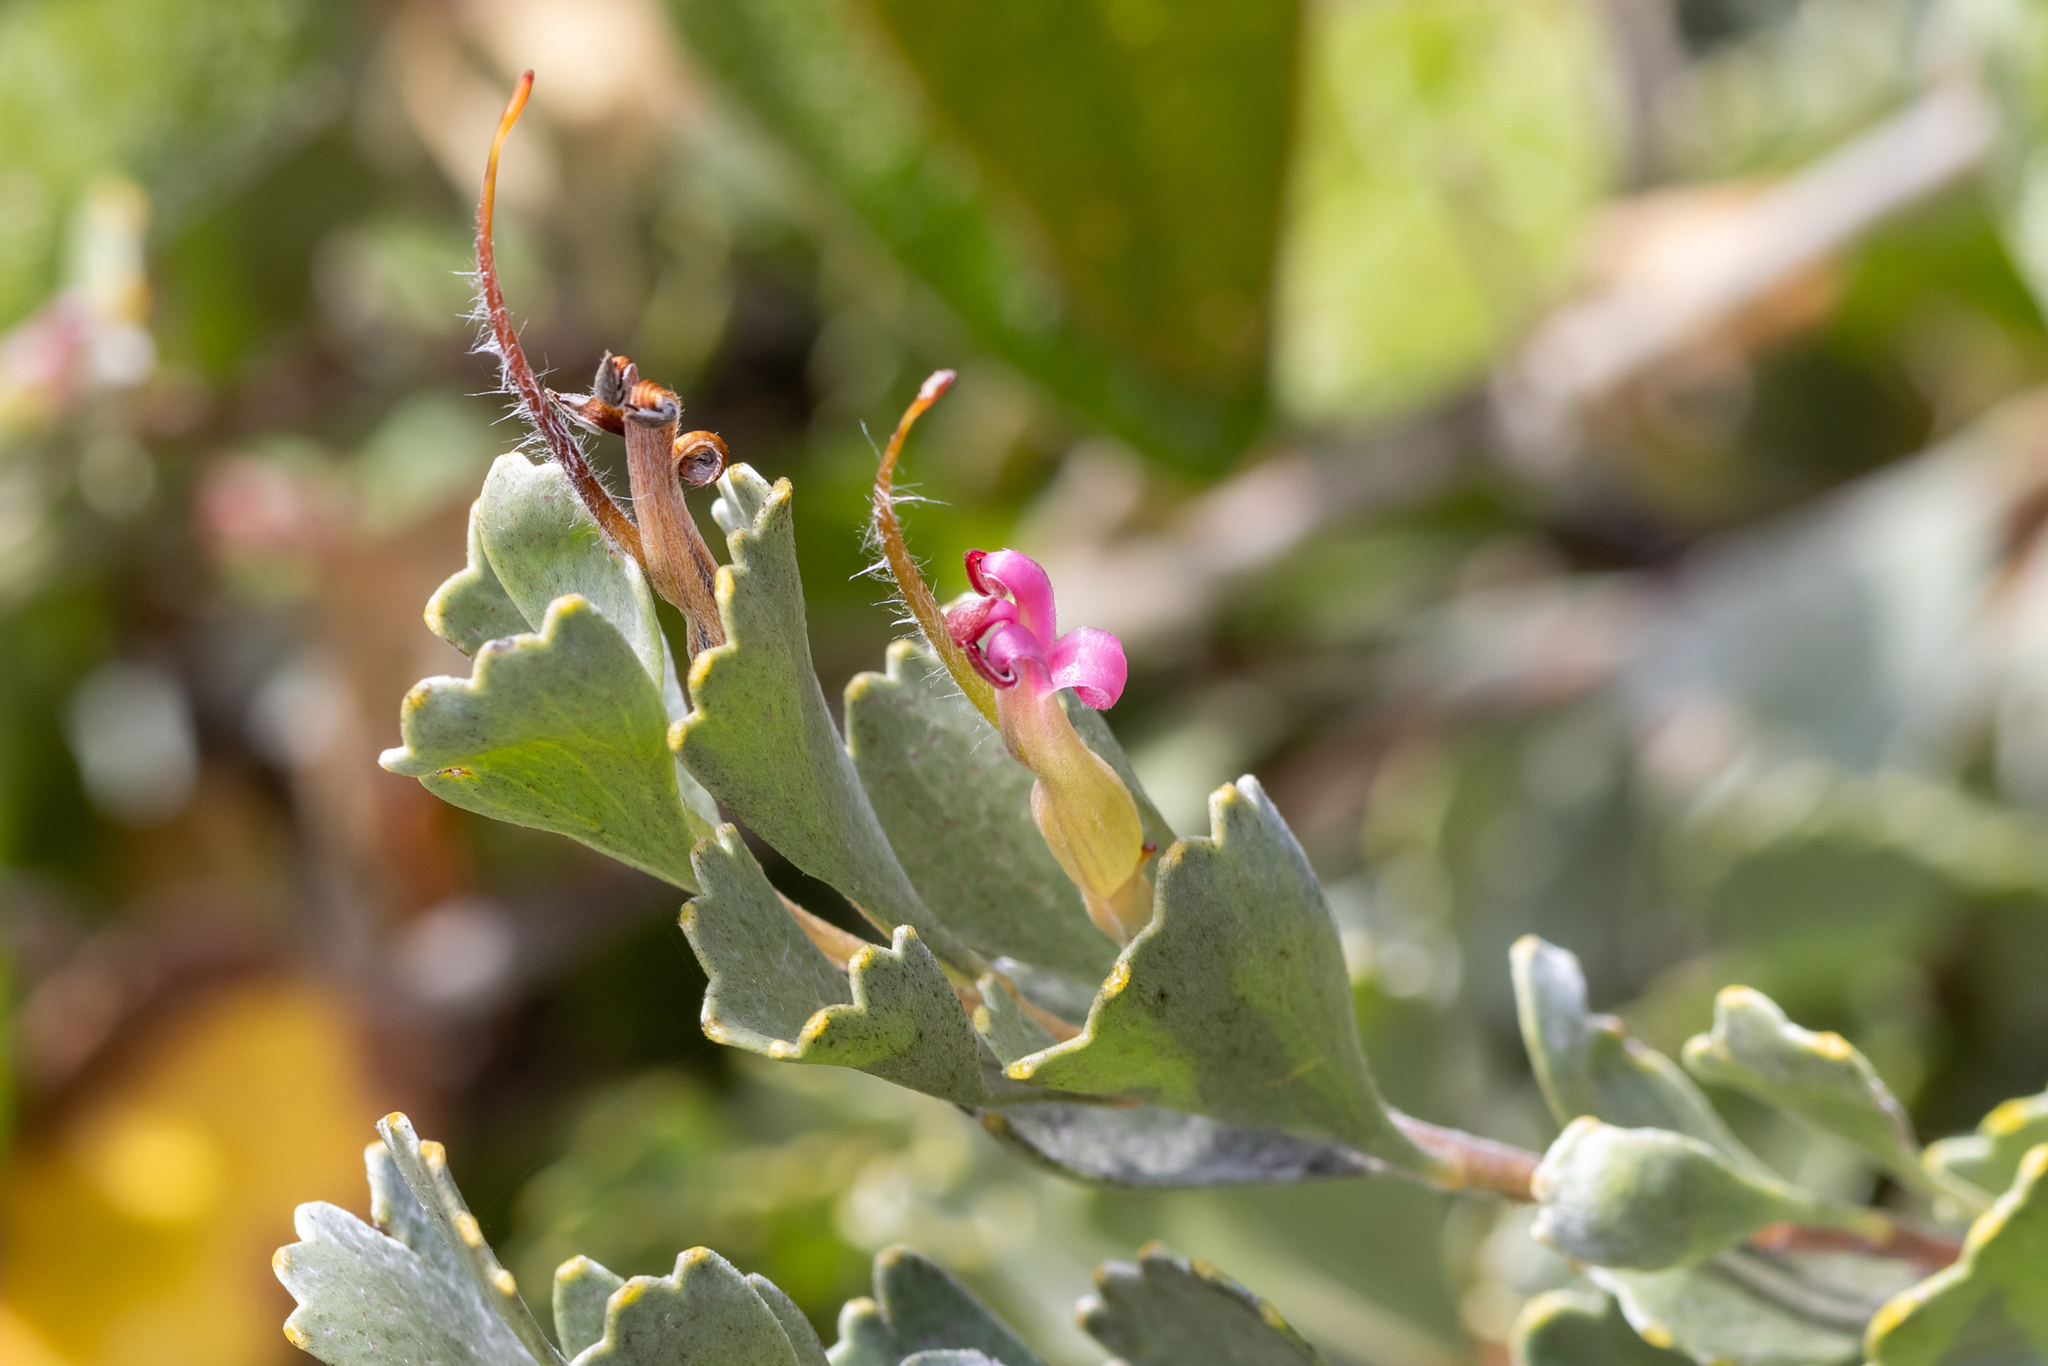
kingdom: Plantae
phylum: Tracheophyta
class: Magnoliopsida
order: Proteales
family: Proteaceae
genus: Adenanthos
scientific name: Adenanthos cuneatus
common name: Flamebush
